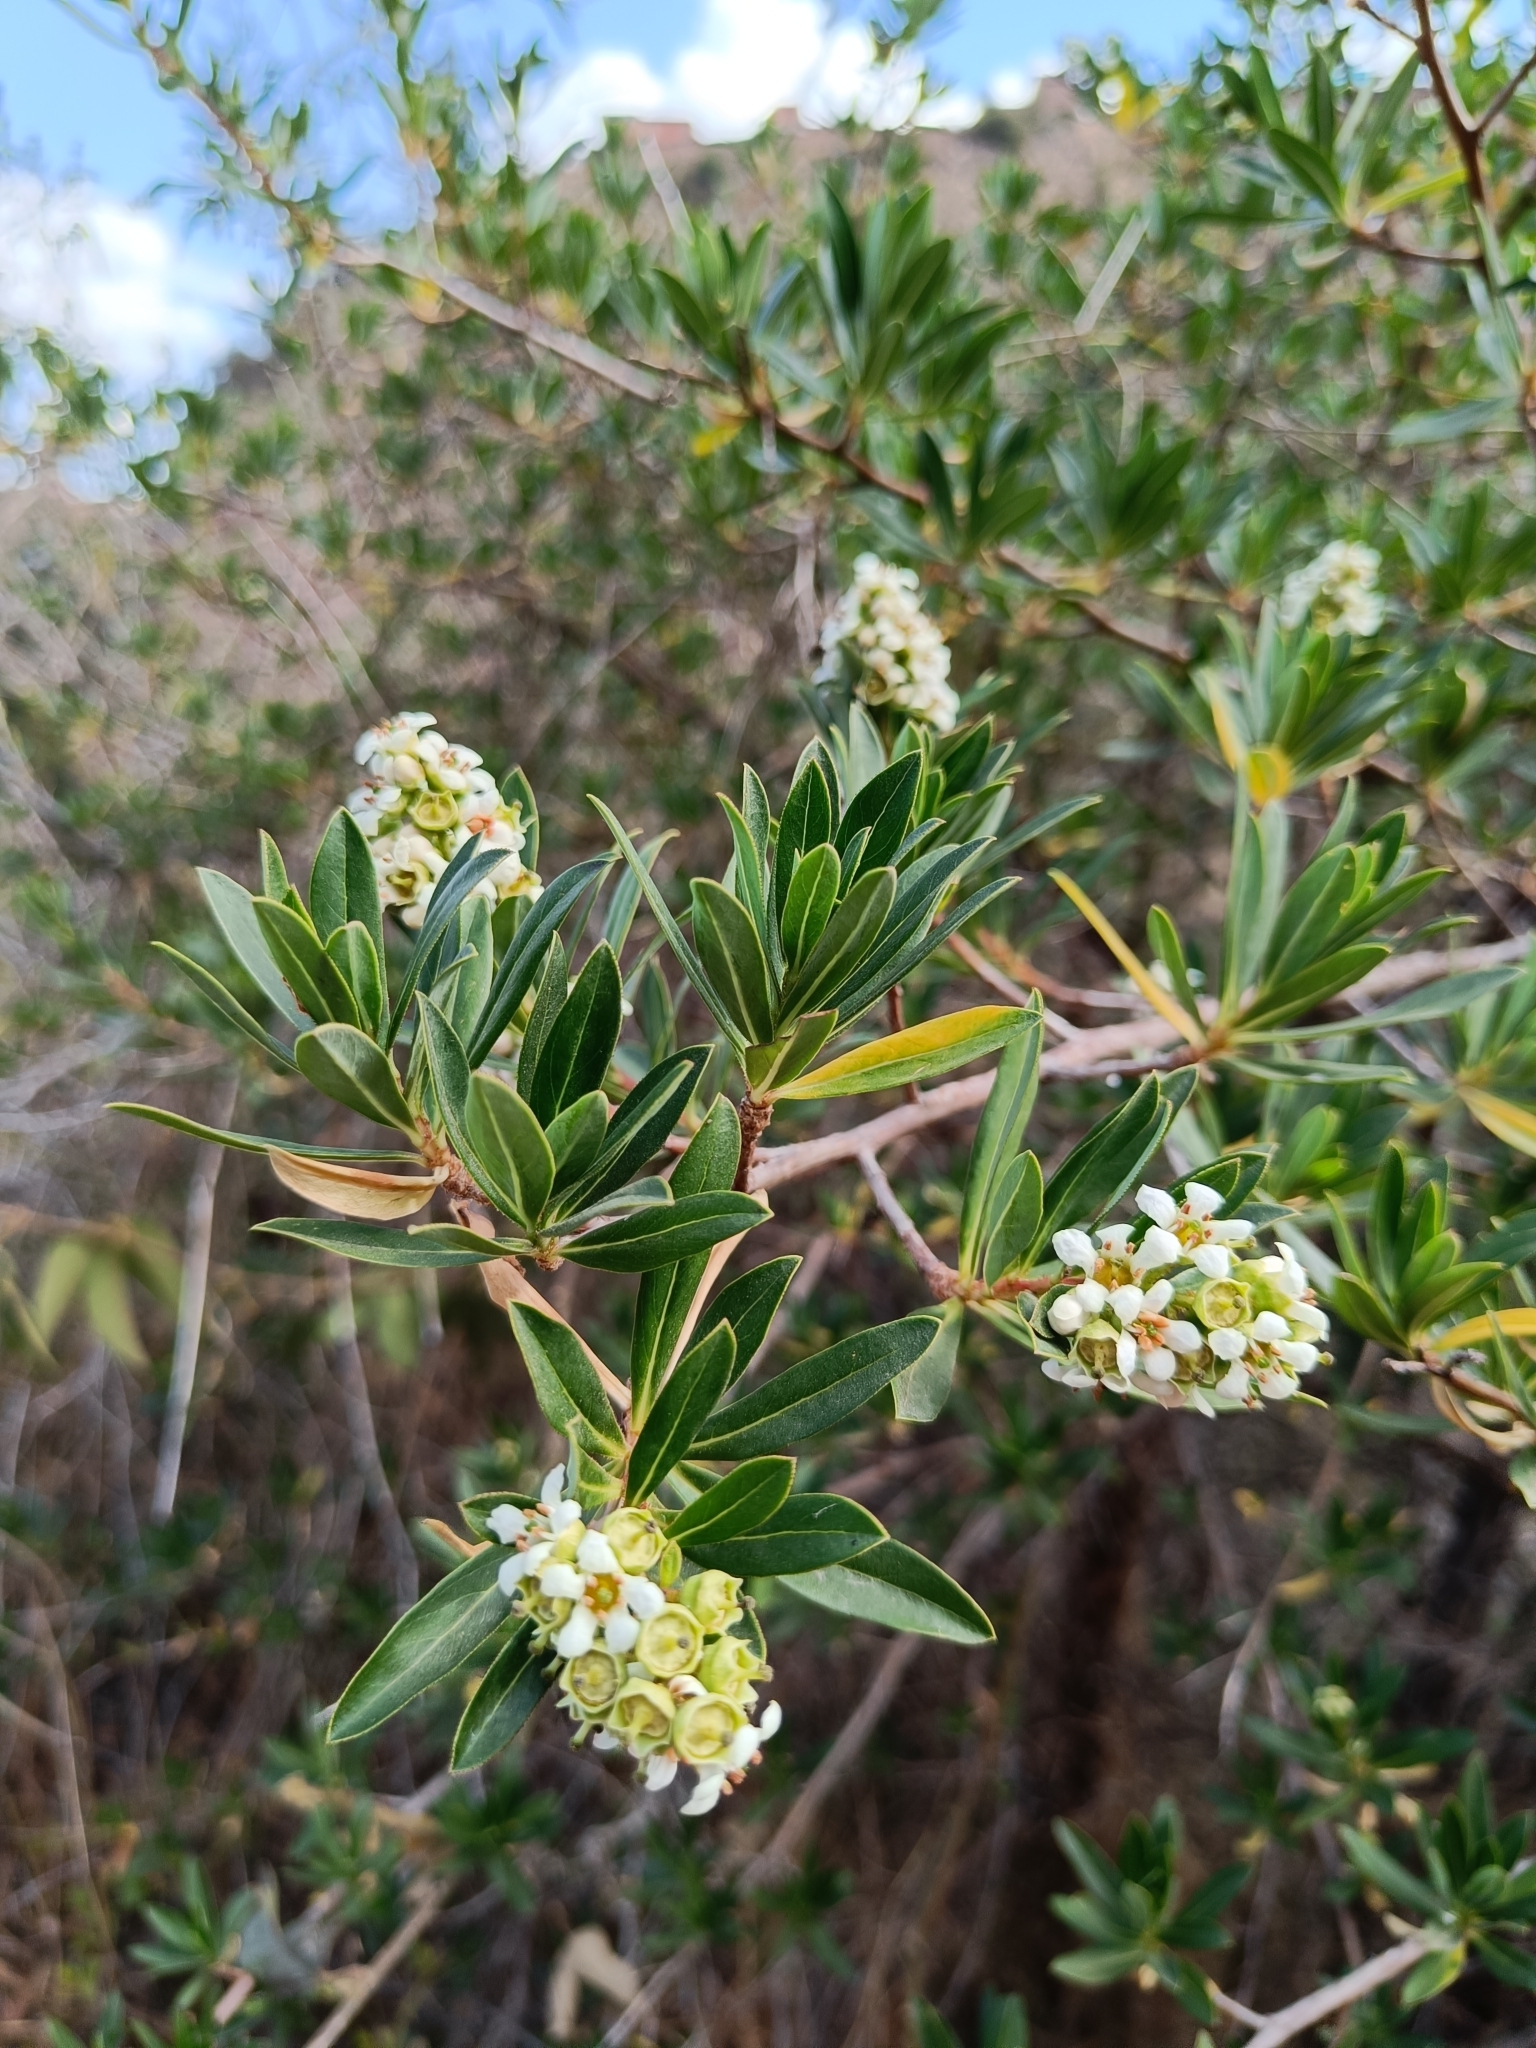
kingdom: Plantae
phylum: Tracheophyta
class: Magnoliopsida
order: Escalloniales
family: Escalloniaceae
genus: Escallonia
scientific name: Escallonia resinosa
